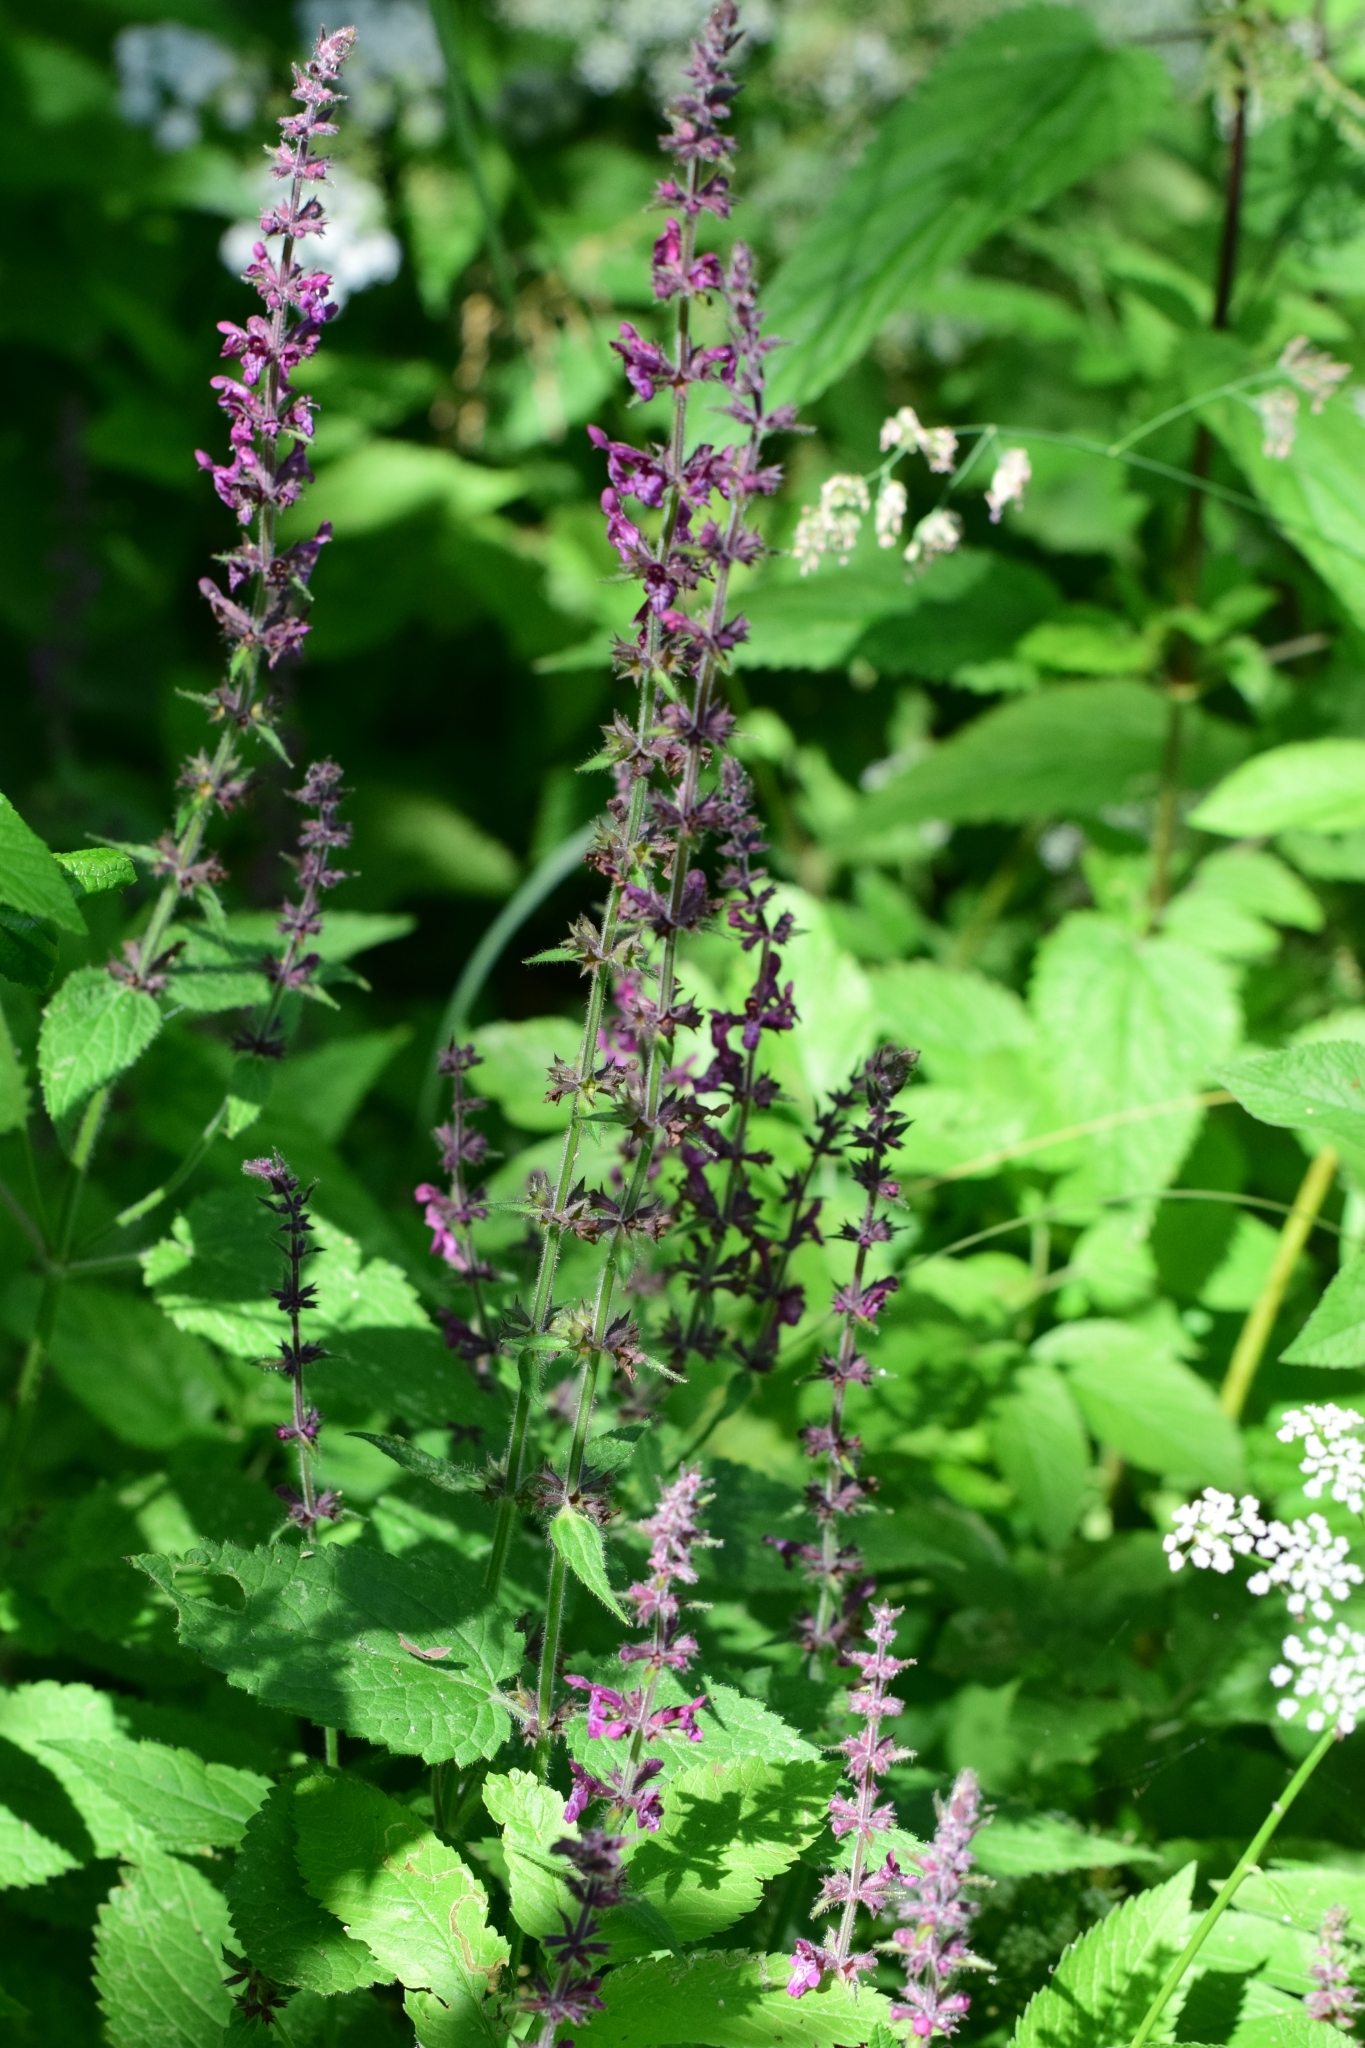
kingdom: Plantae
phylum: Tracheophyta
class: Magnoliopsida
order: Lamiales
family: Lamiaceae
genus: Stachys
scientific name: Stachys sylvatica
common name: Hedge woundwort
